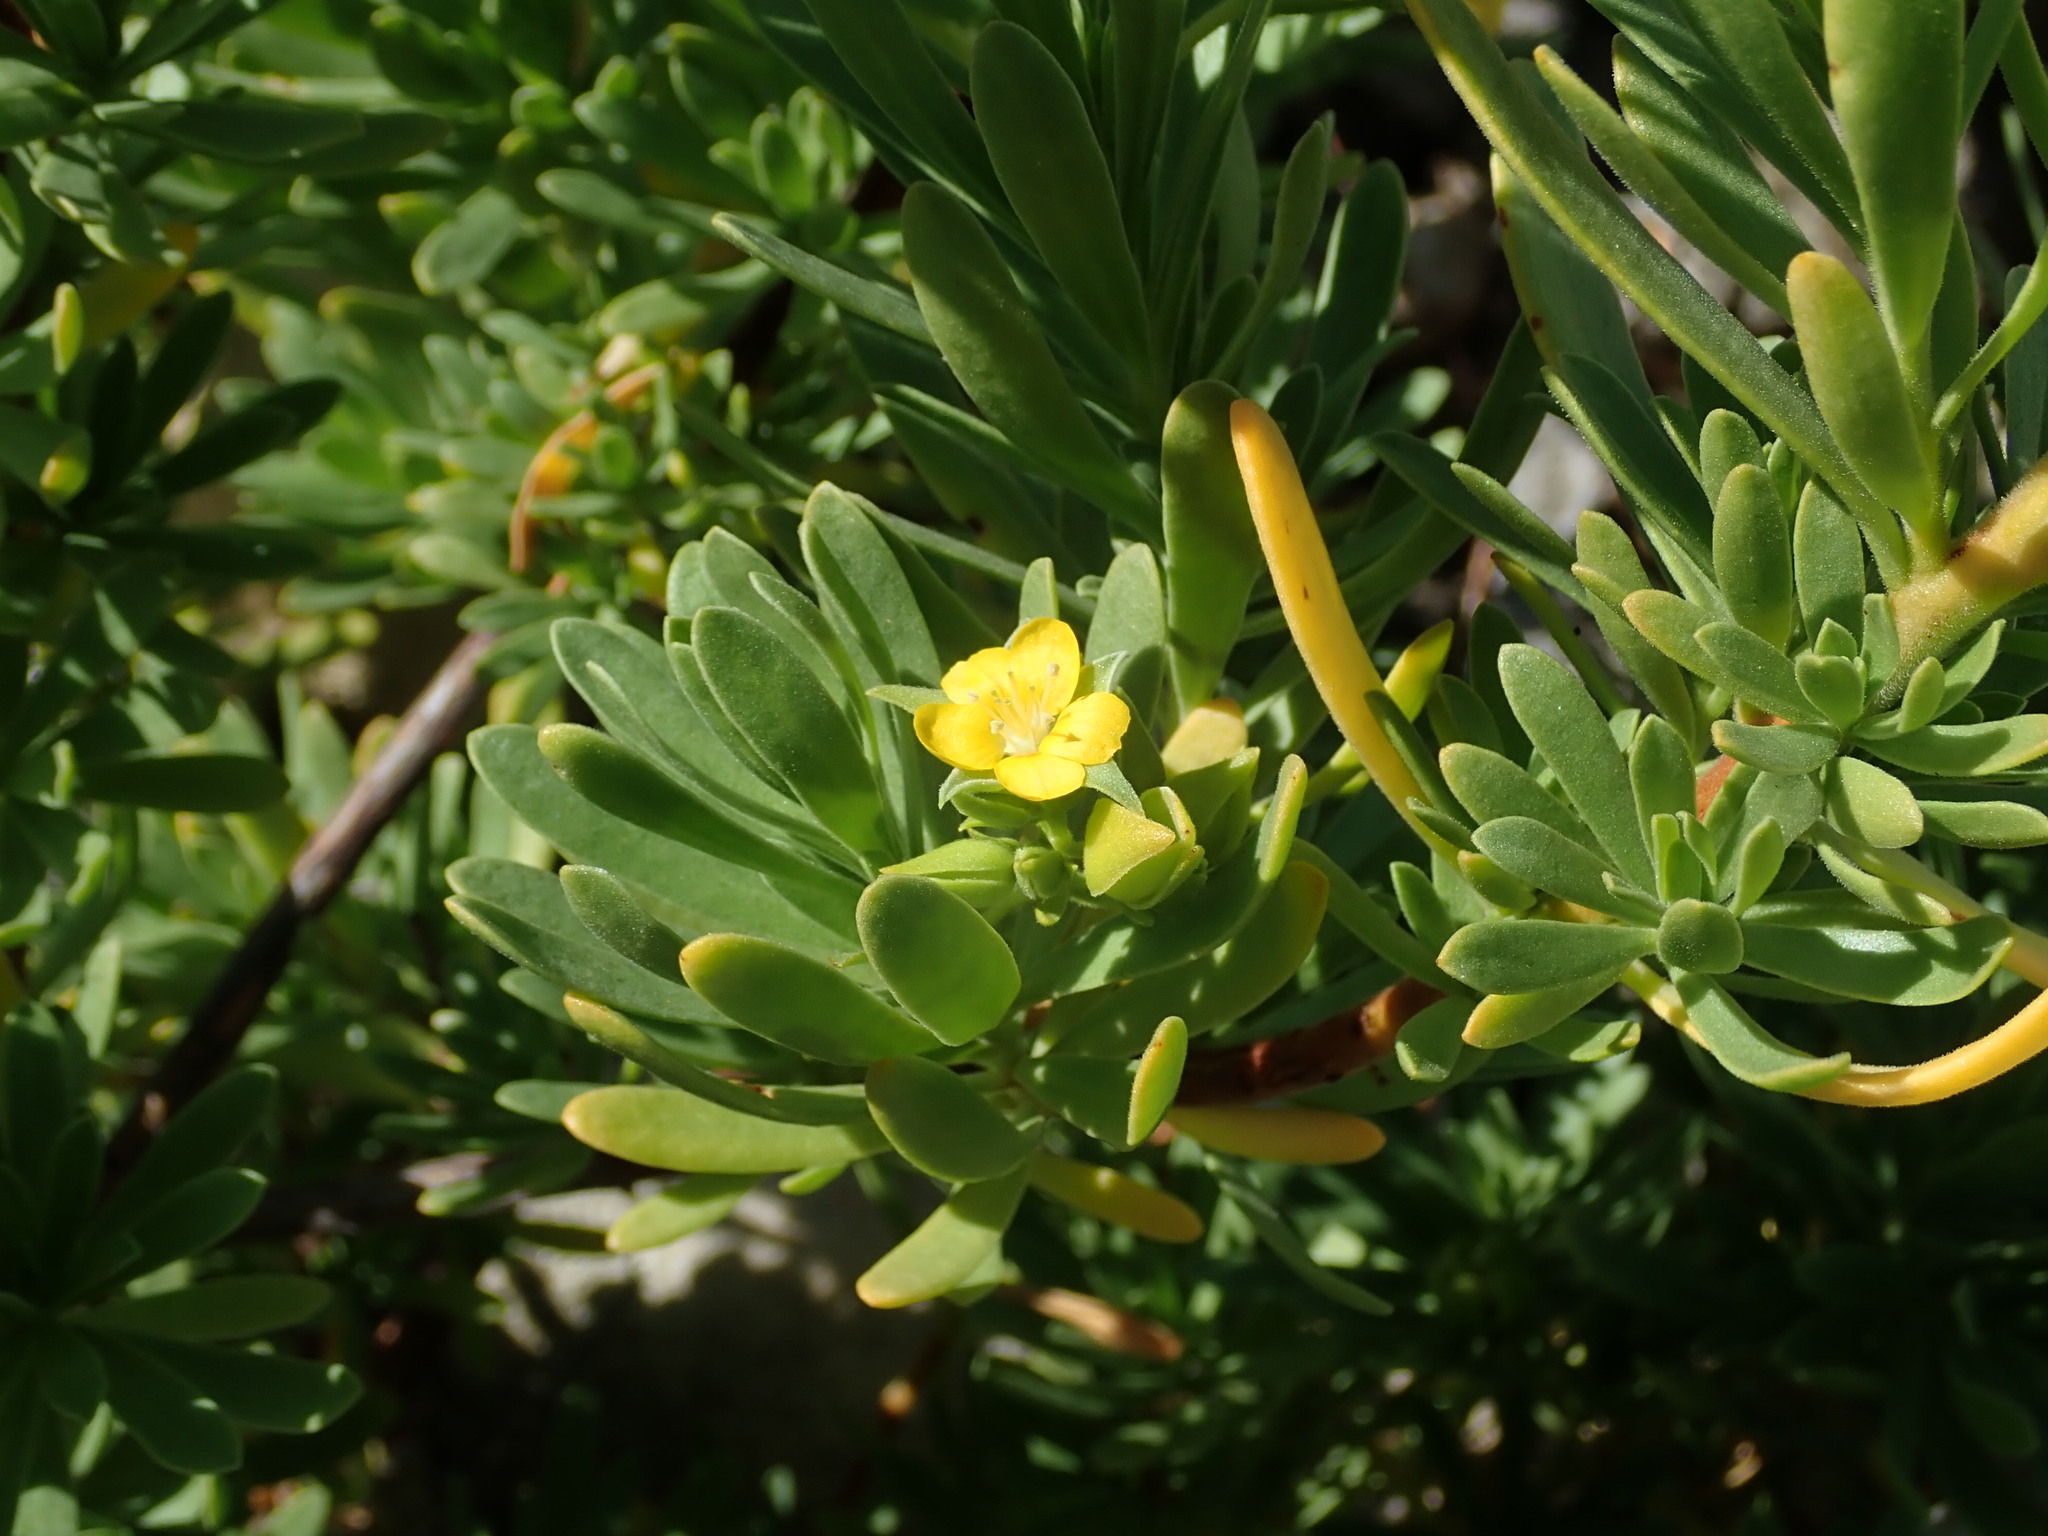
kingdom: Plantae
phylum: Tracheophyta
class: Magnoliopsida
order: Fabales
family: Surianaceae
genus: Suriana
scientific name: Suriana maritima
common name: Bay-cedar
